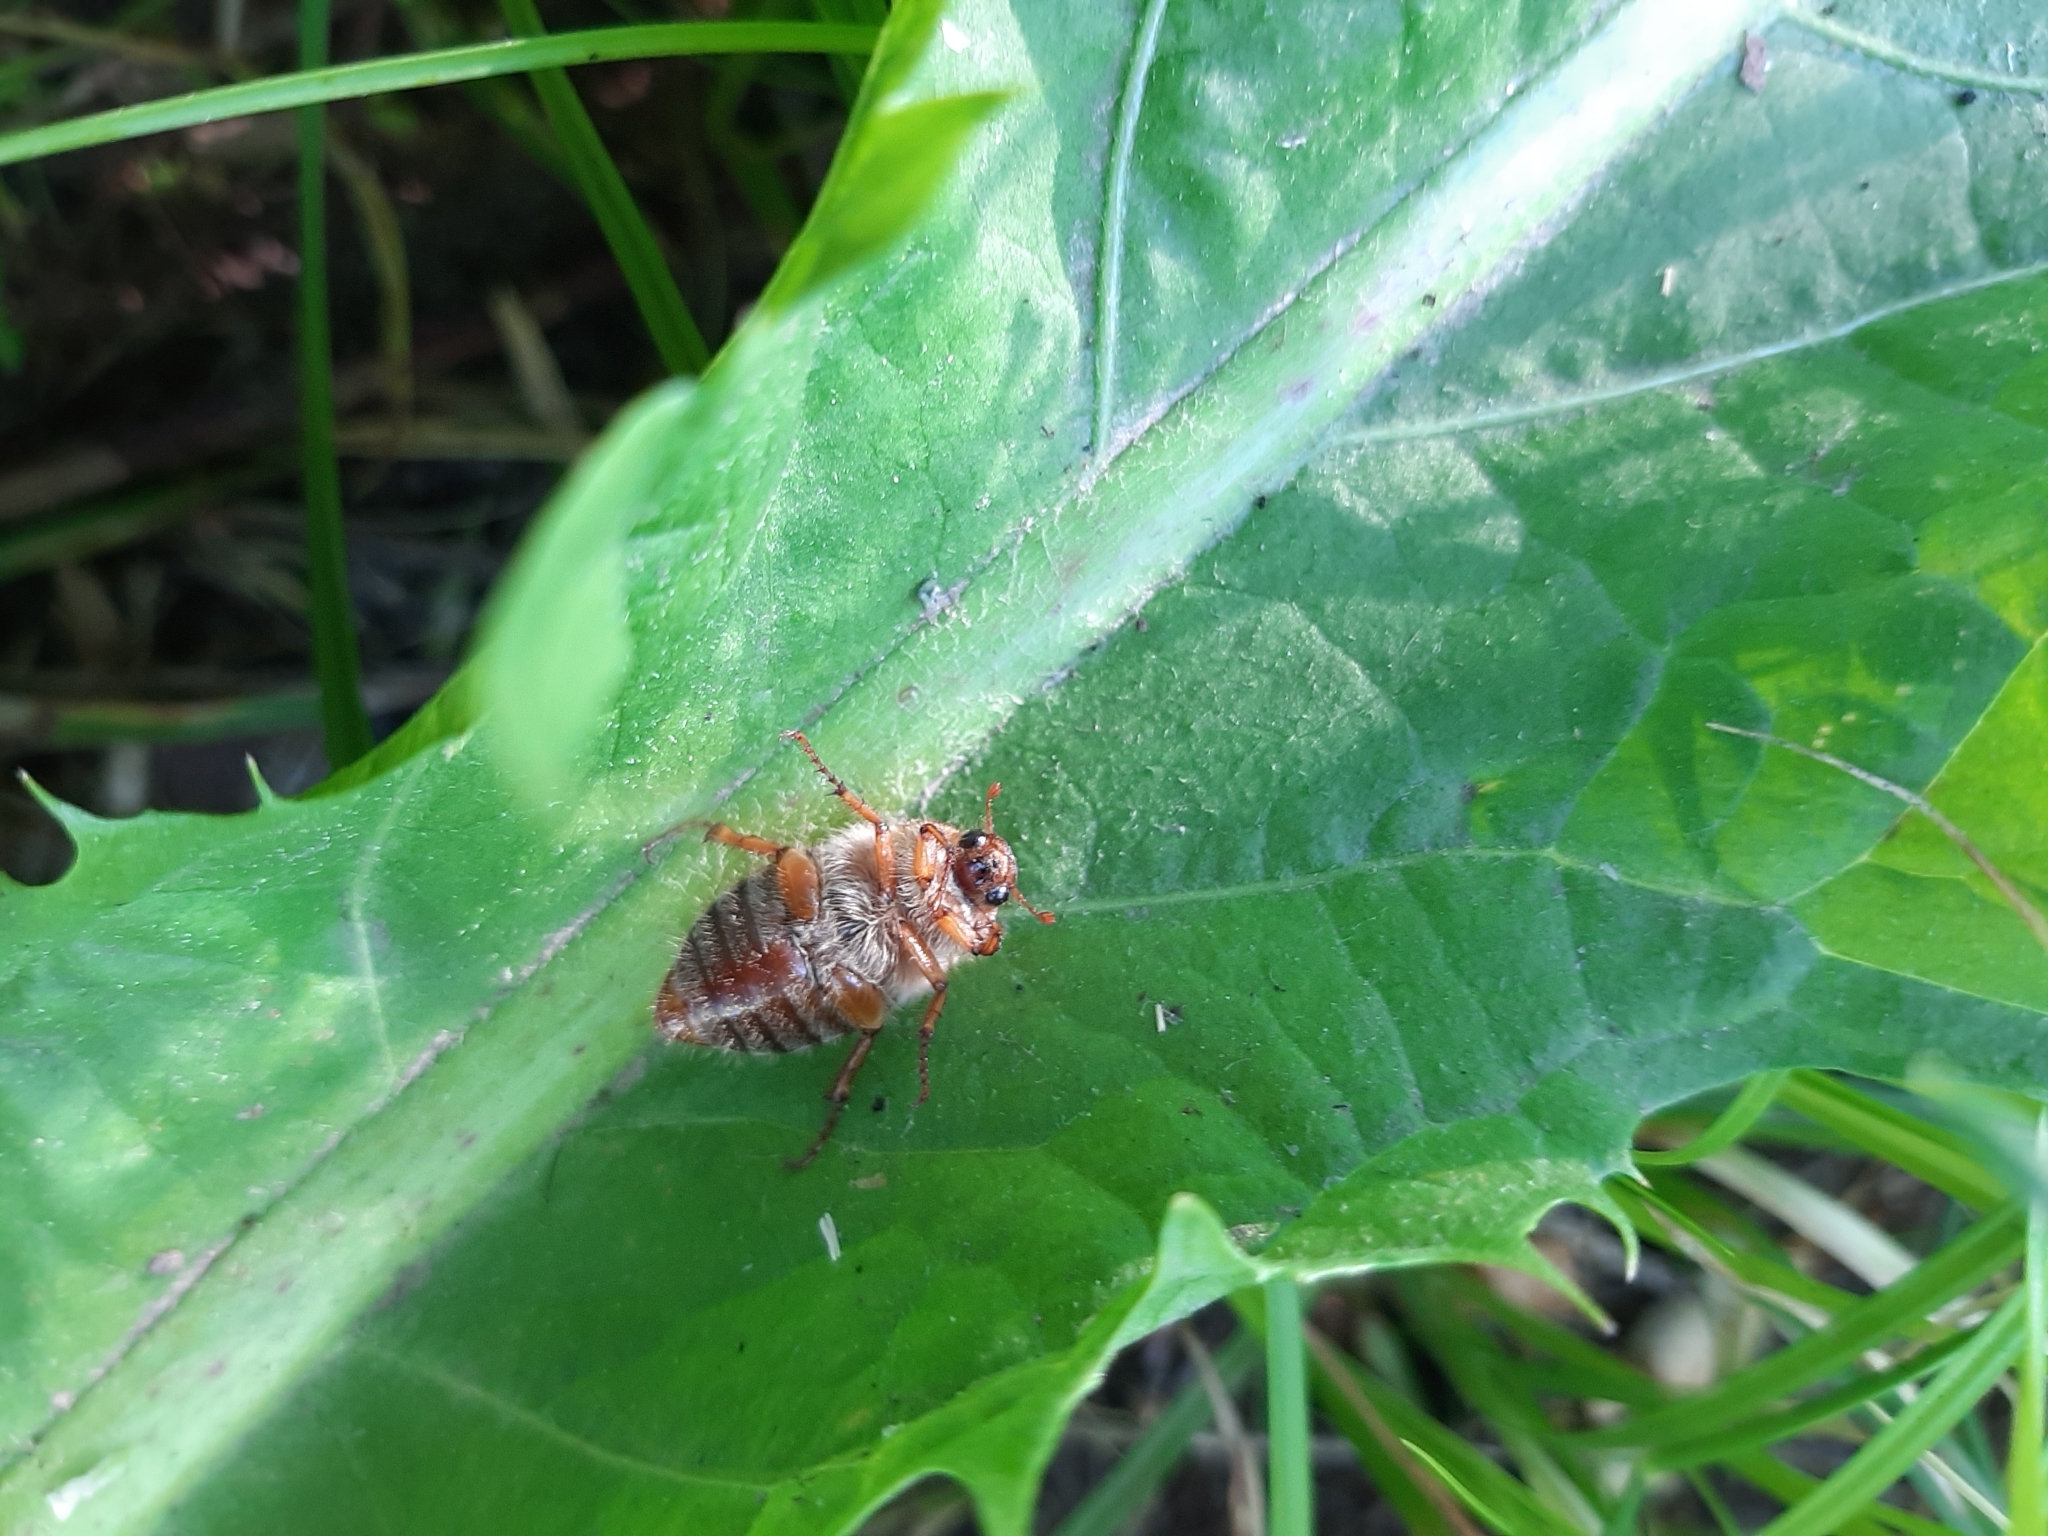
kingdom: Animalia
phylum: Arthropoda
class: Insecta
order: Coleoptera
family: Scarabaeidae
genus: Amphimallon
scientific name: Amphimallon solstitiale
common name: Summer chafer
